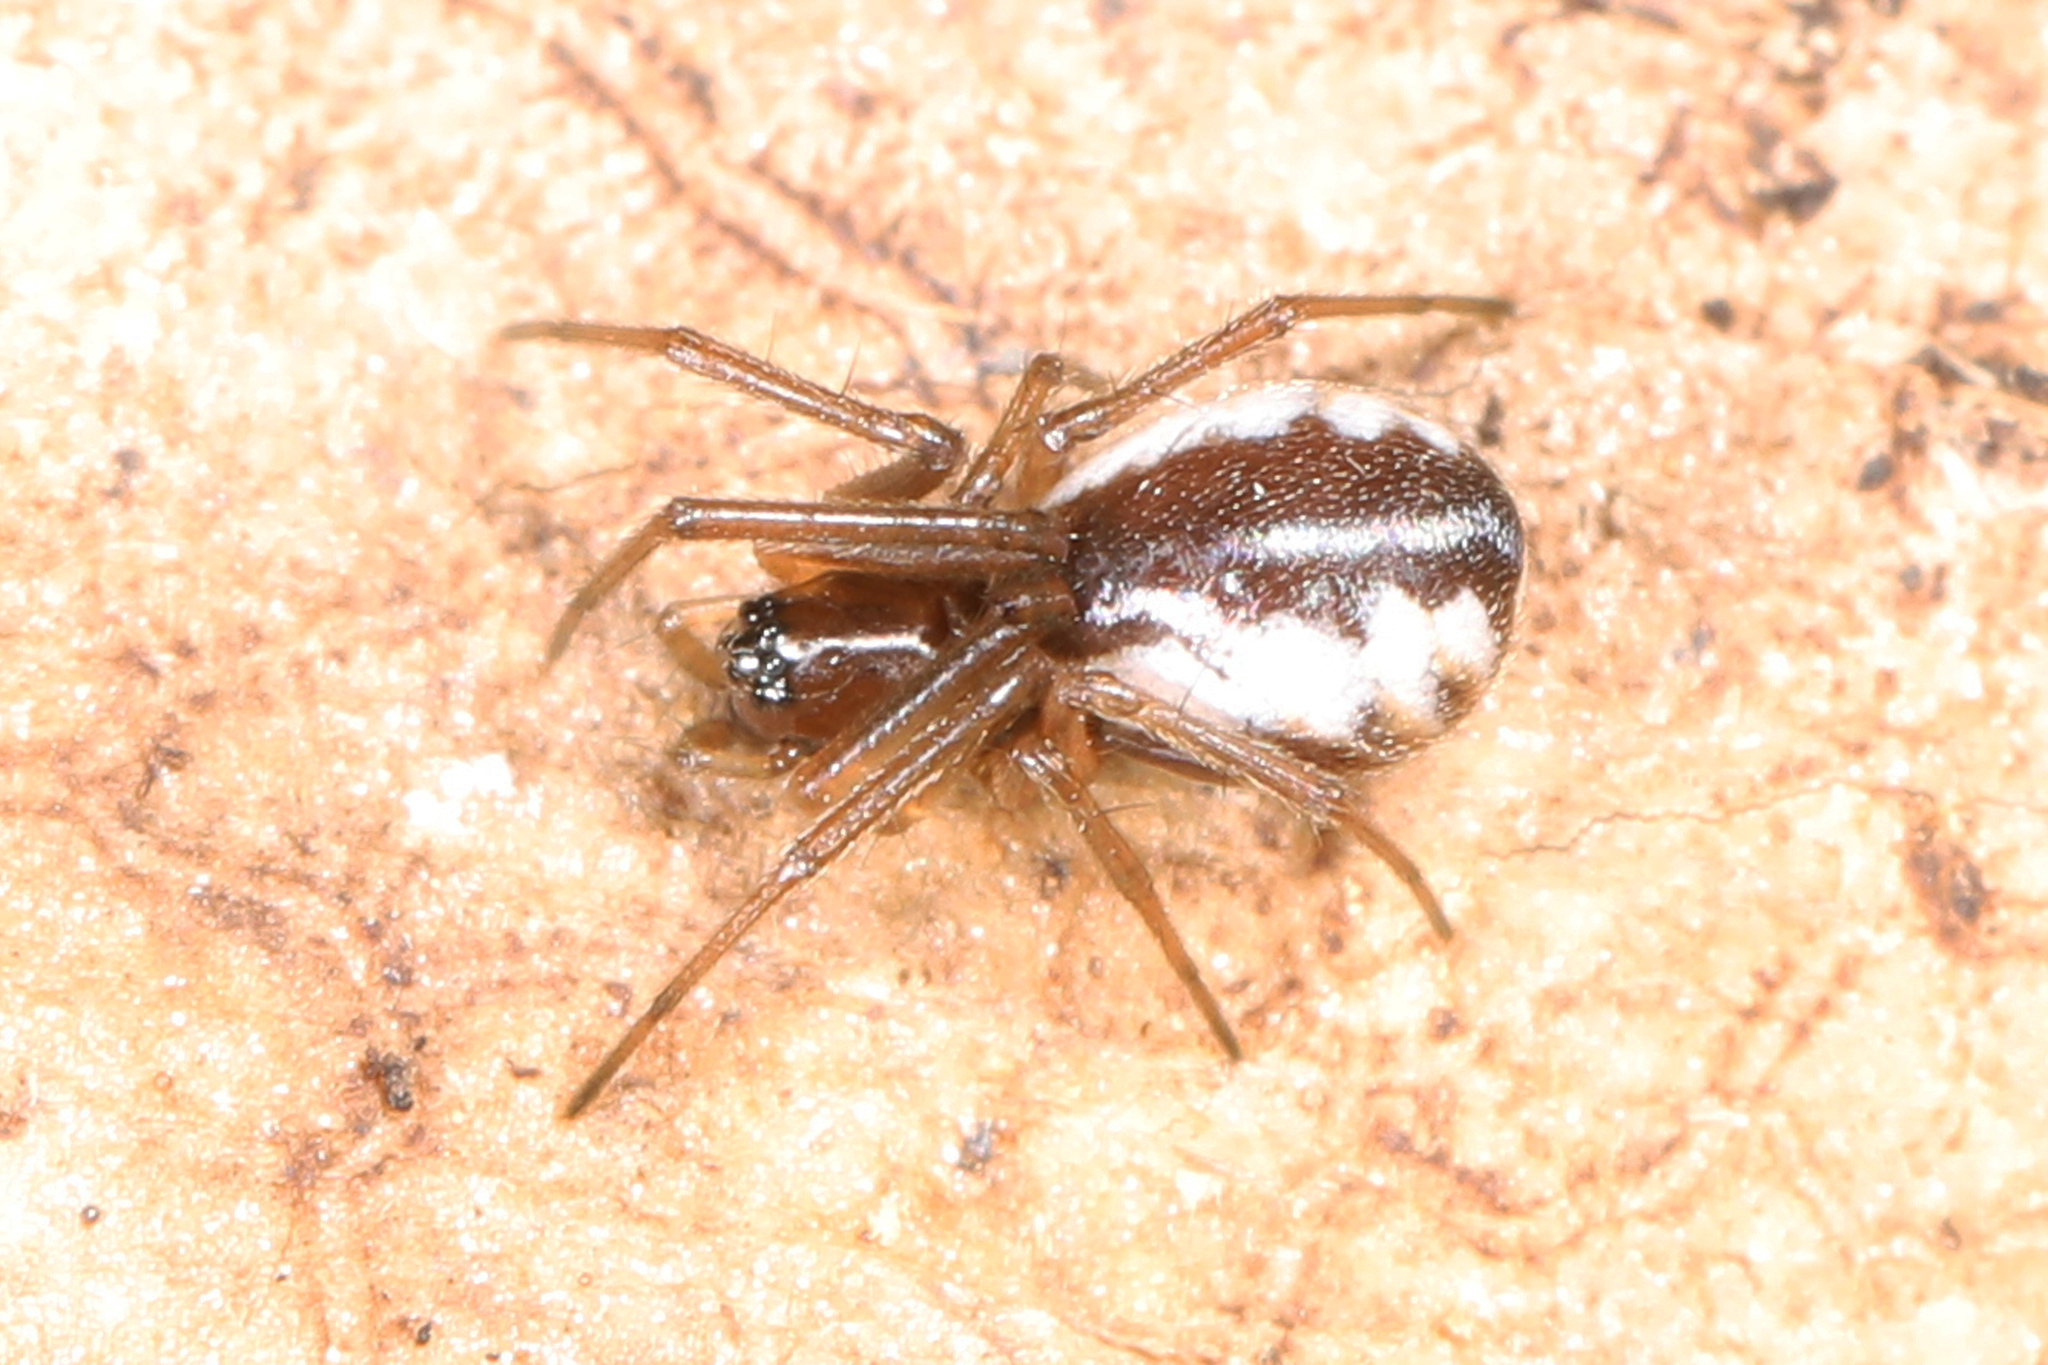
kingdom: Animalia
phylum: Arthropoda
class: Arachnida
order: Araneae
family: Linyphiidae
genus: Frontinella
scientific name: Frontinella pyramitela
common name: Bowl-and-doily spider
